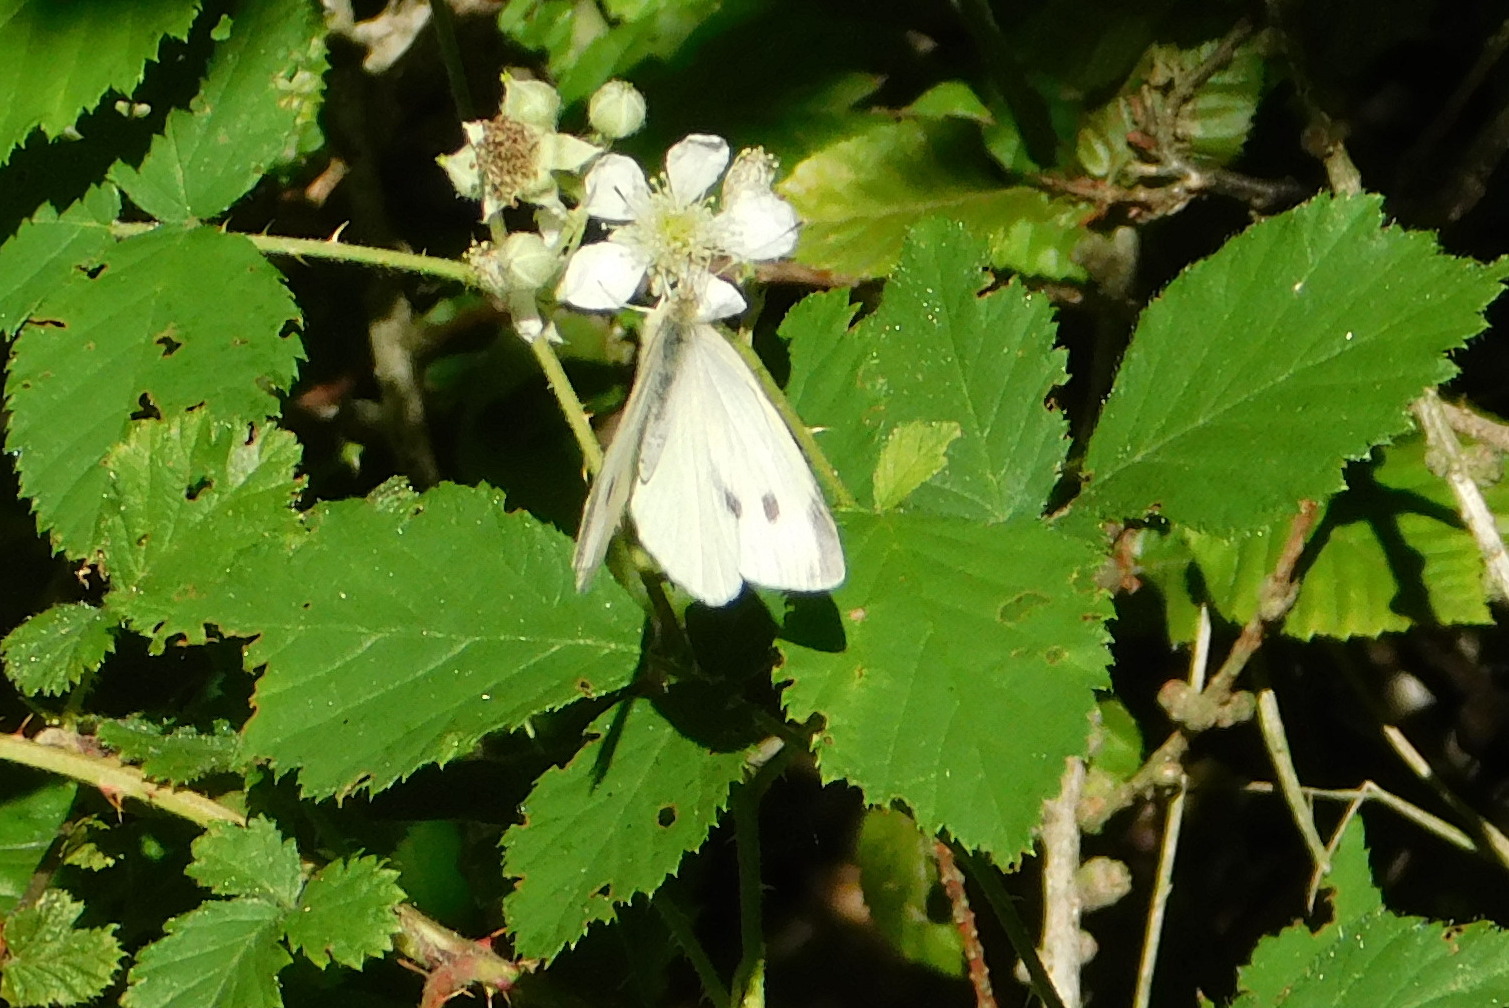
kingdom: Animalia
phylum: Arthropoda
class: Insecta
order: Lepidoptera
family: Pieridae
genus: Pieris
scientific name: Pieris rapae
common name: Small white
